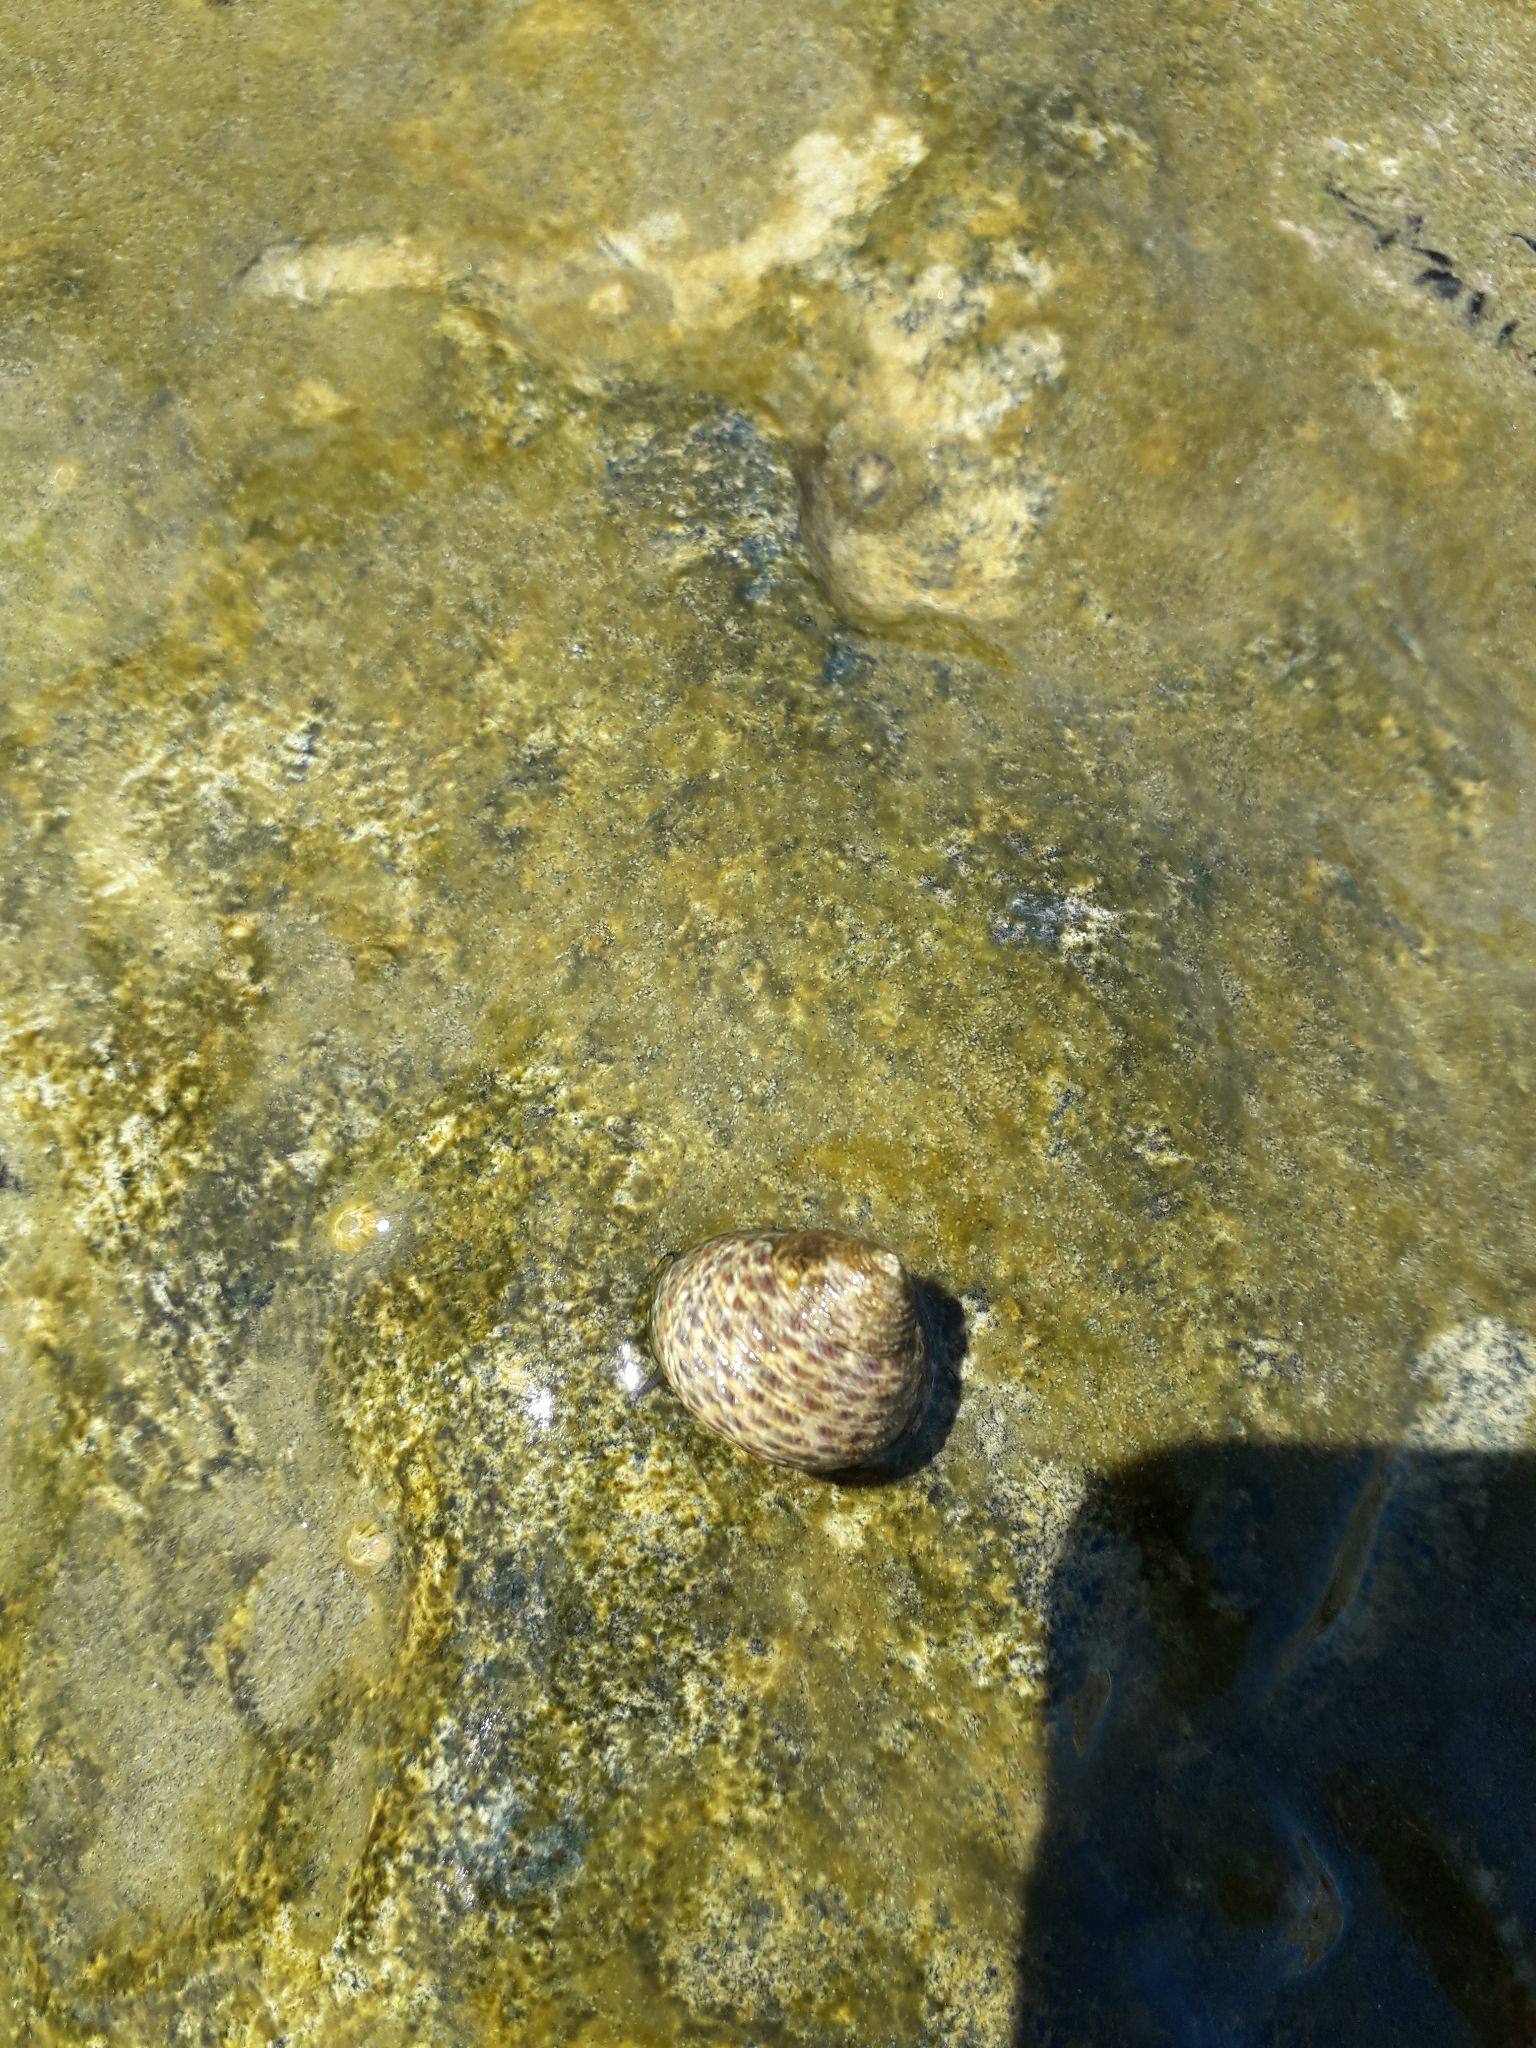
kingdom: Animalia
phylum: Mollusca
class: Gastropoda
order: Trochida
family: Trochidae
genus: Phorcus
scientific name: Phorcus turbinatus
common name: Turbinate monodont
